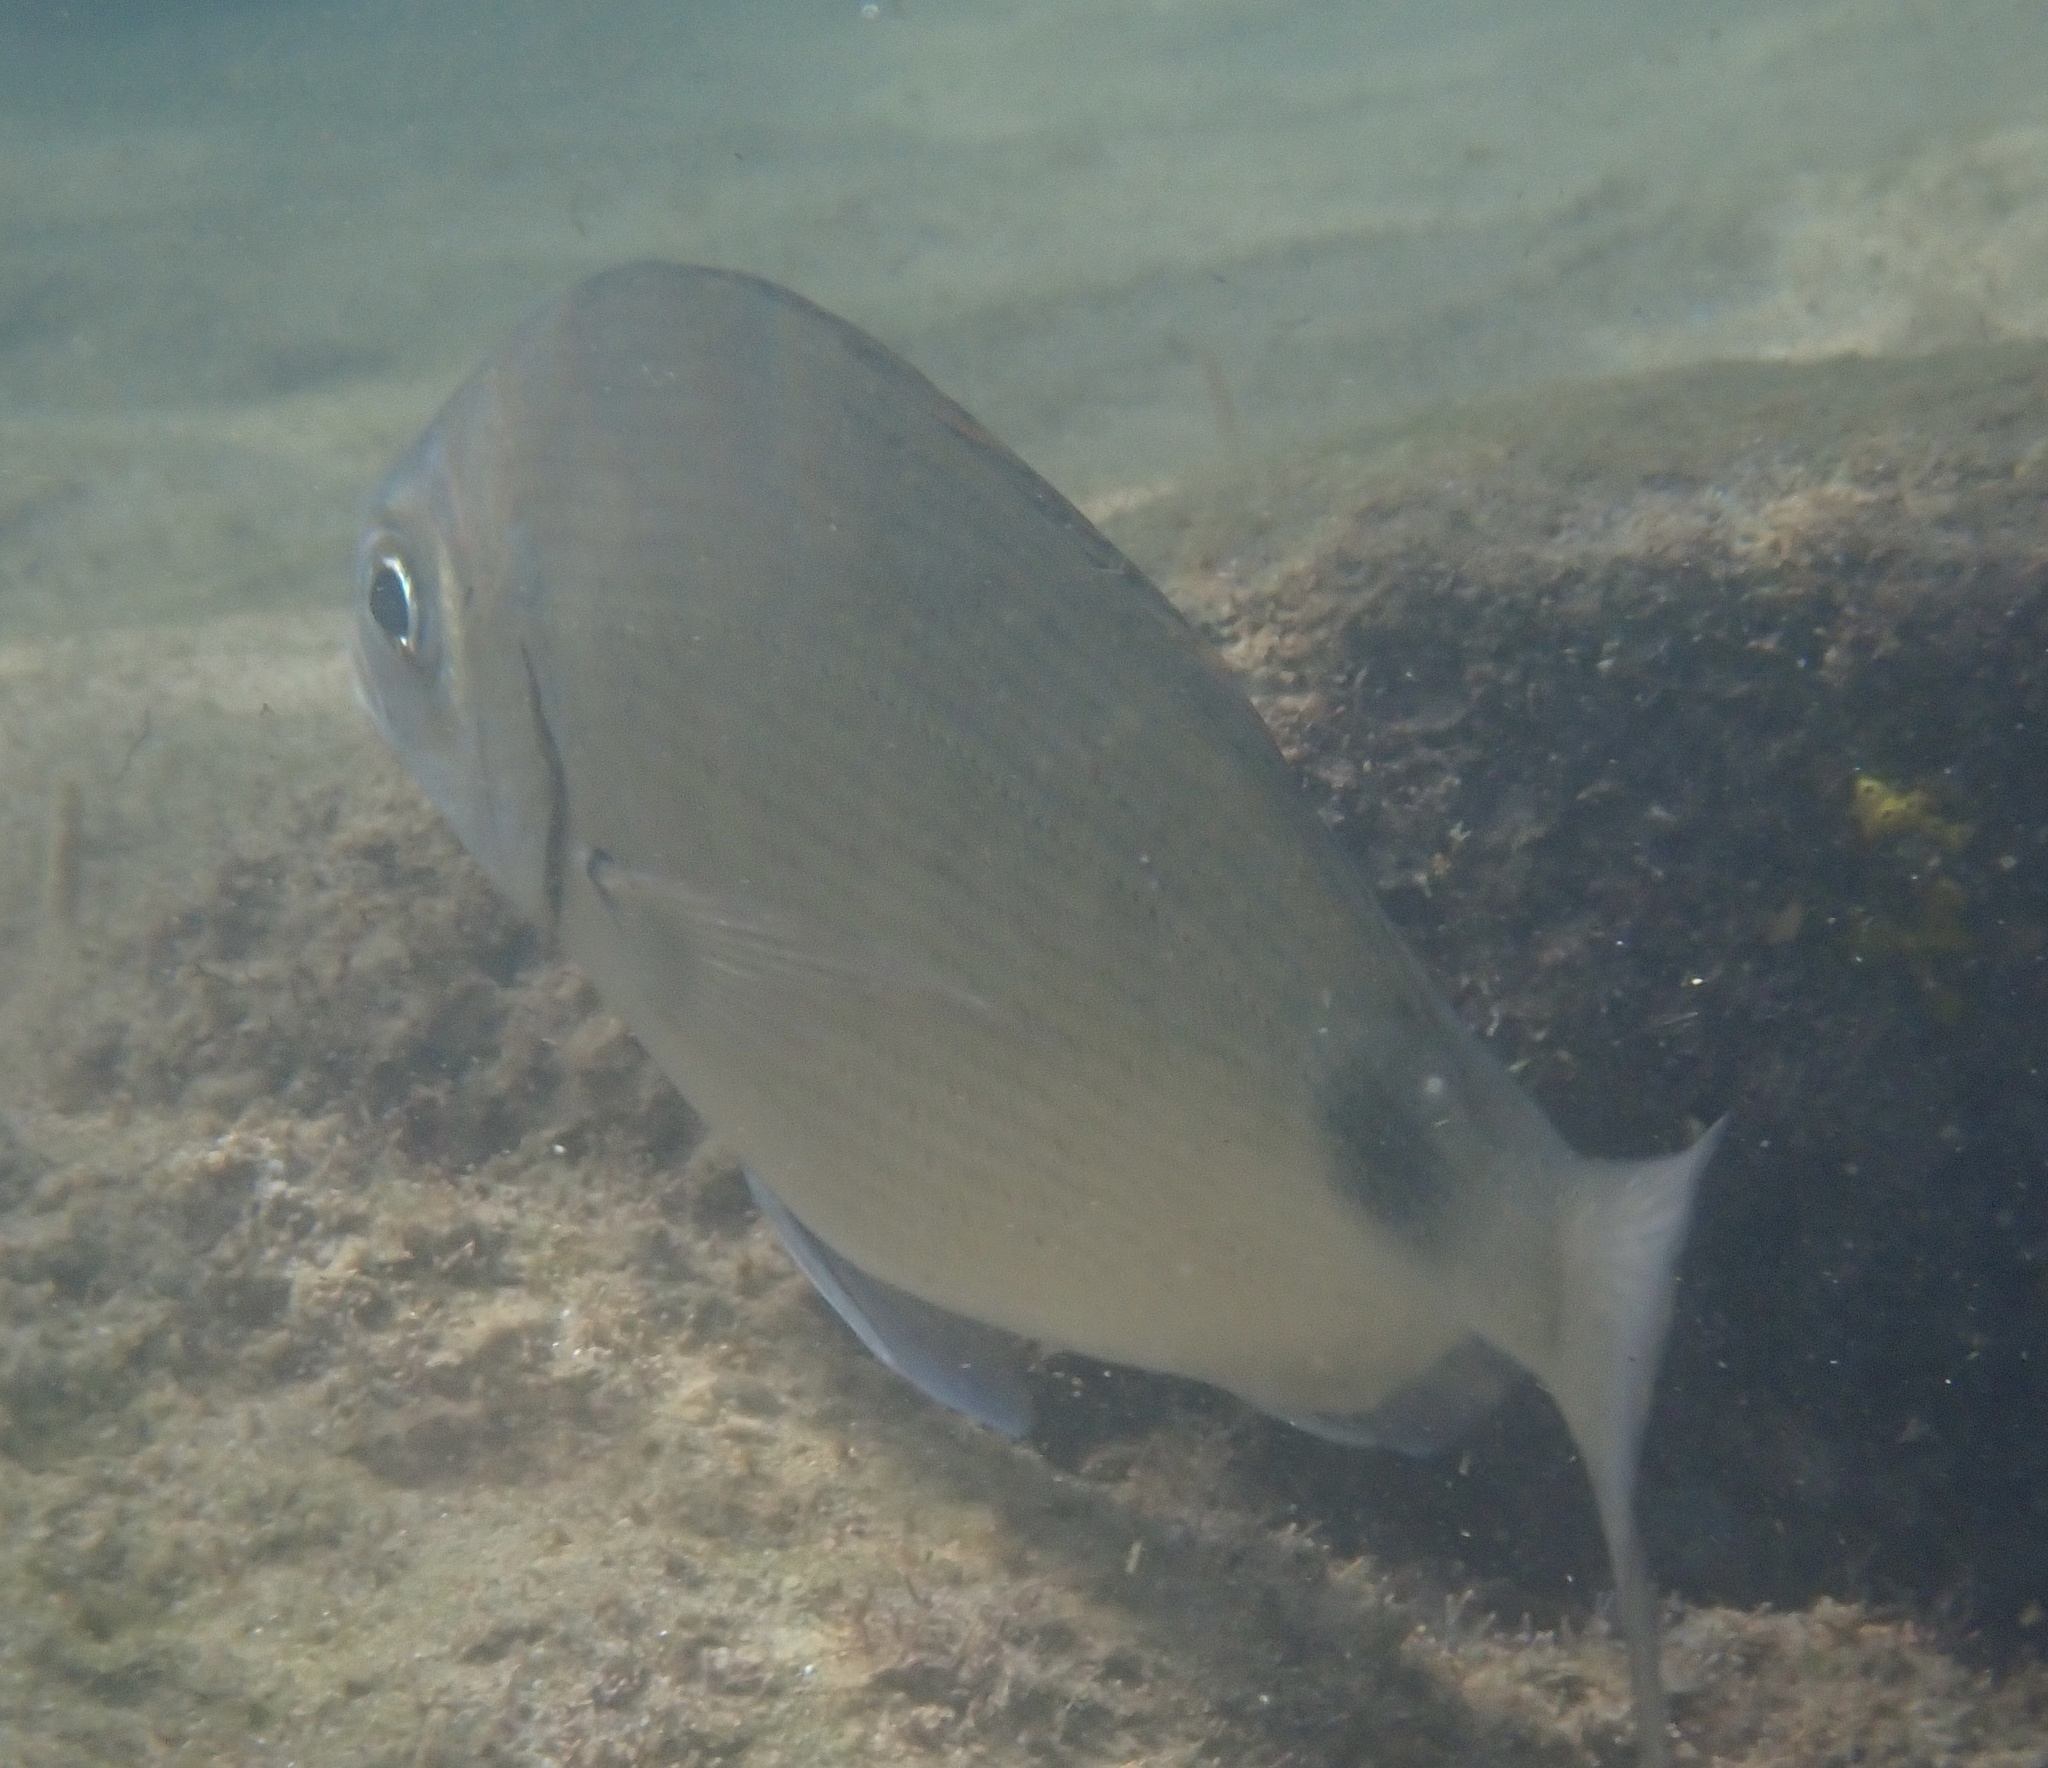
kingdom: Animalia
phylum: Chordata
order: Perciformes
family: Sparidae
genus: Diplodus
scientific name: Diplodus capensis
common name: Blacktail
